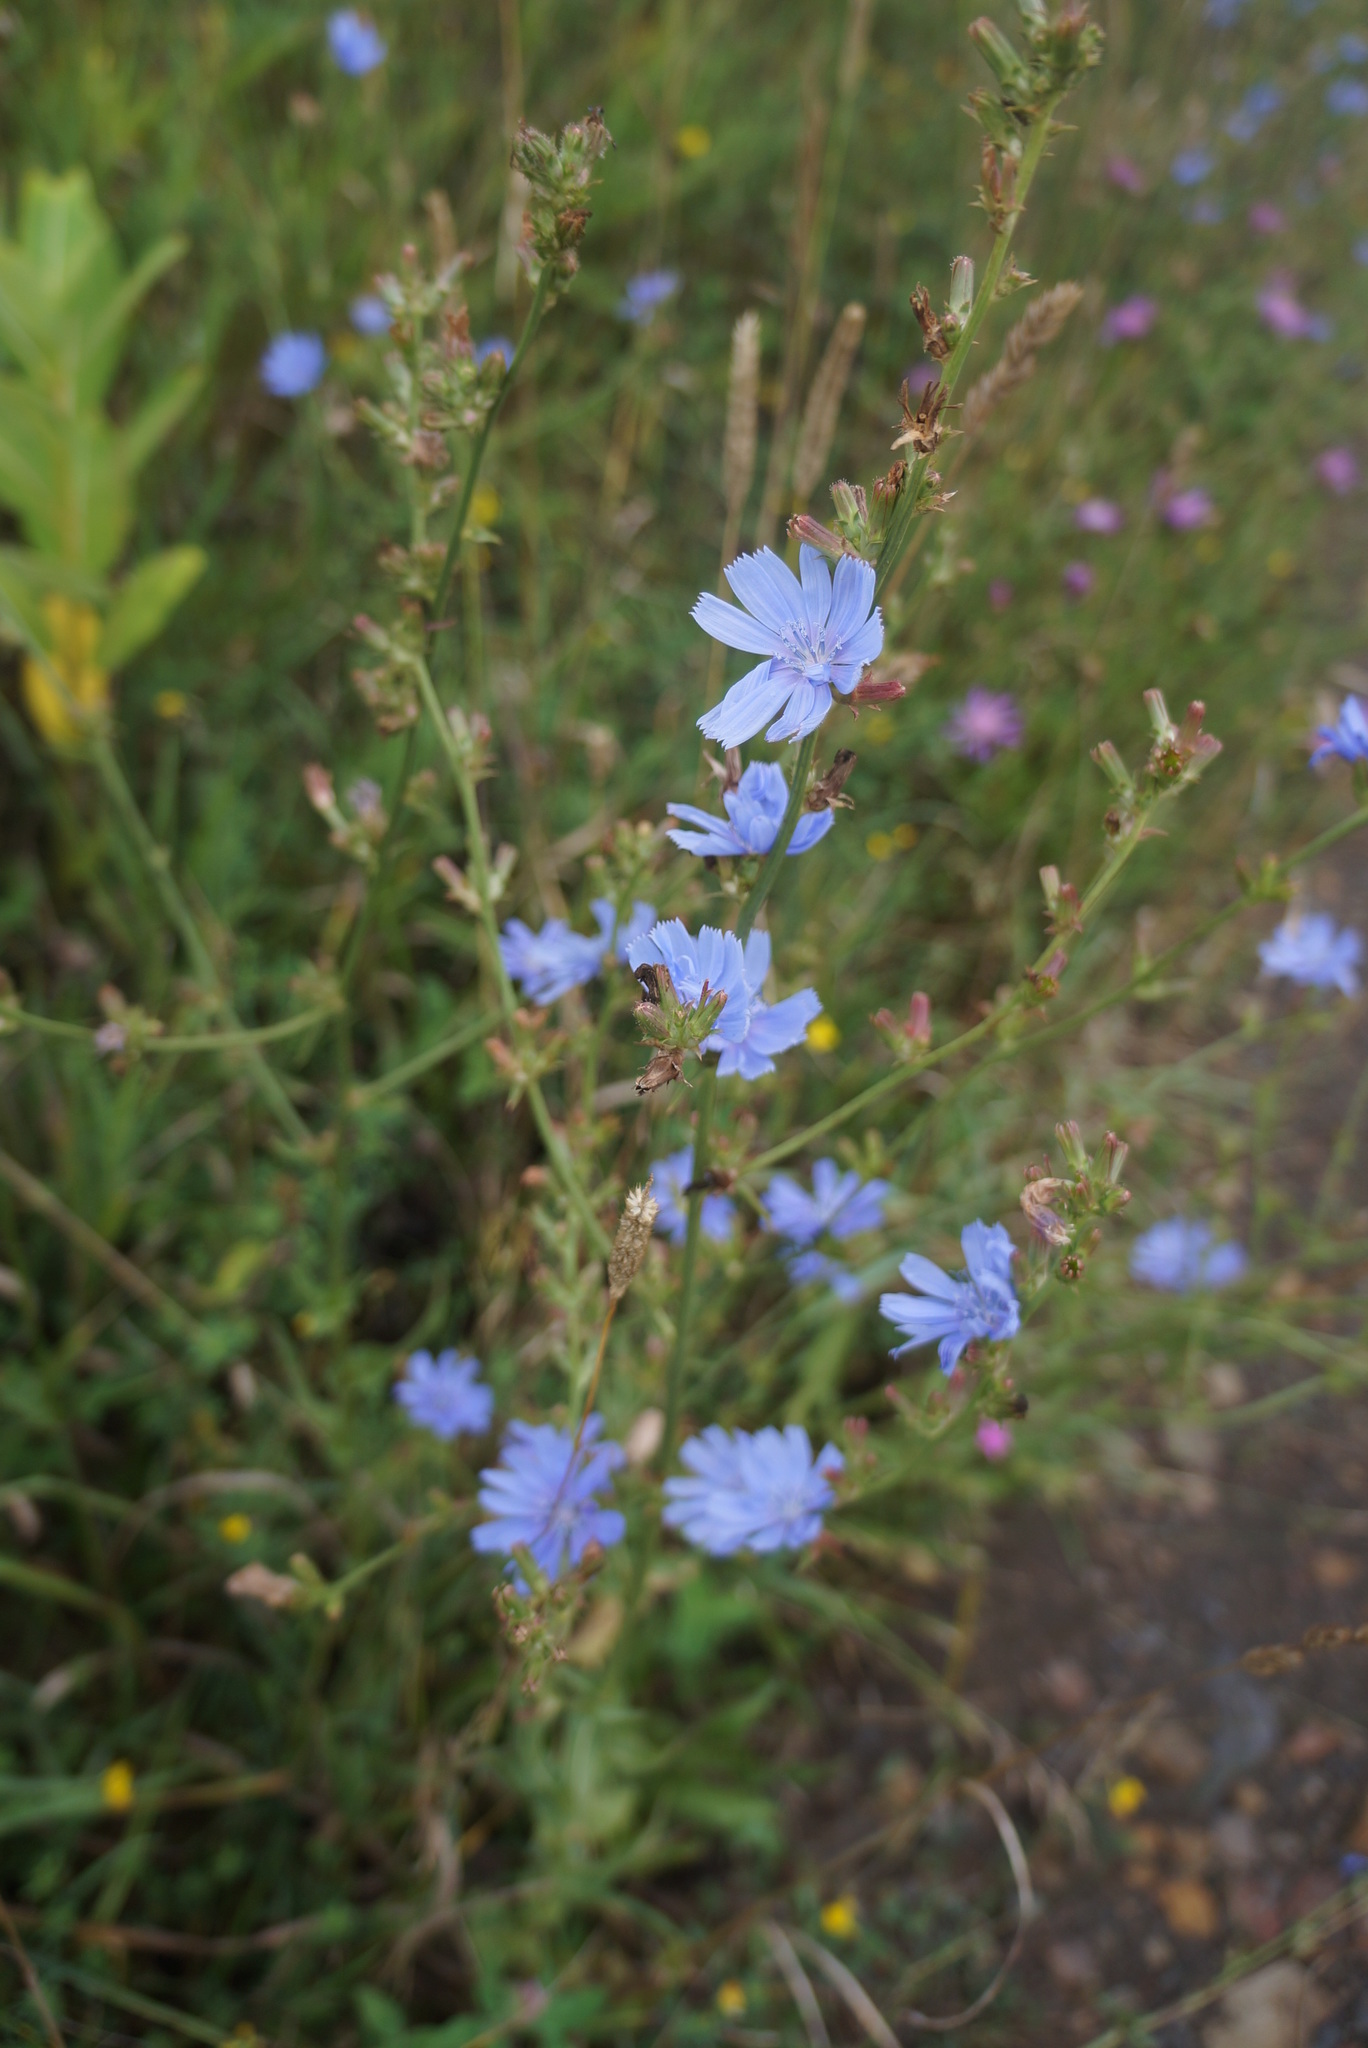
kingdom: Plantae
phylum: Tracheophyta
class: Magnoliopsida
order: Asterales
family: Asteraceae
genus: Cichorium
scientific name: Cichorium intybus
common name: Chicory
